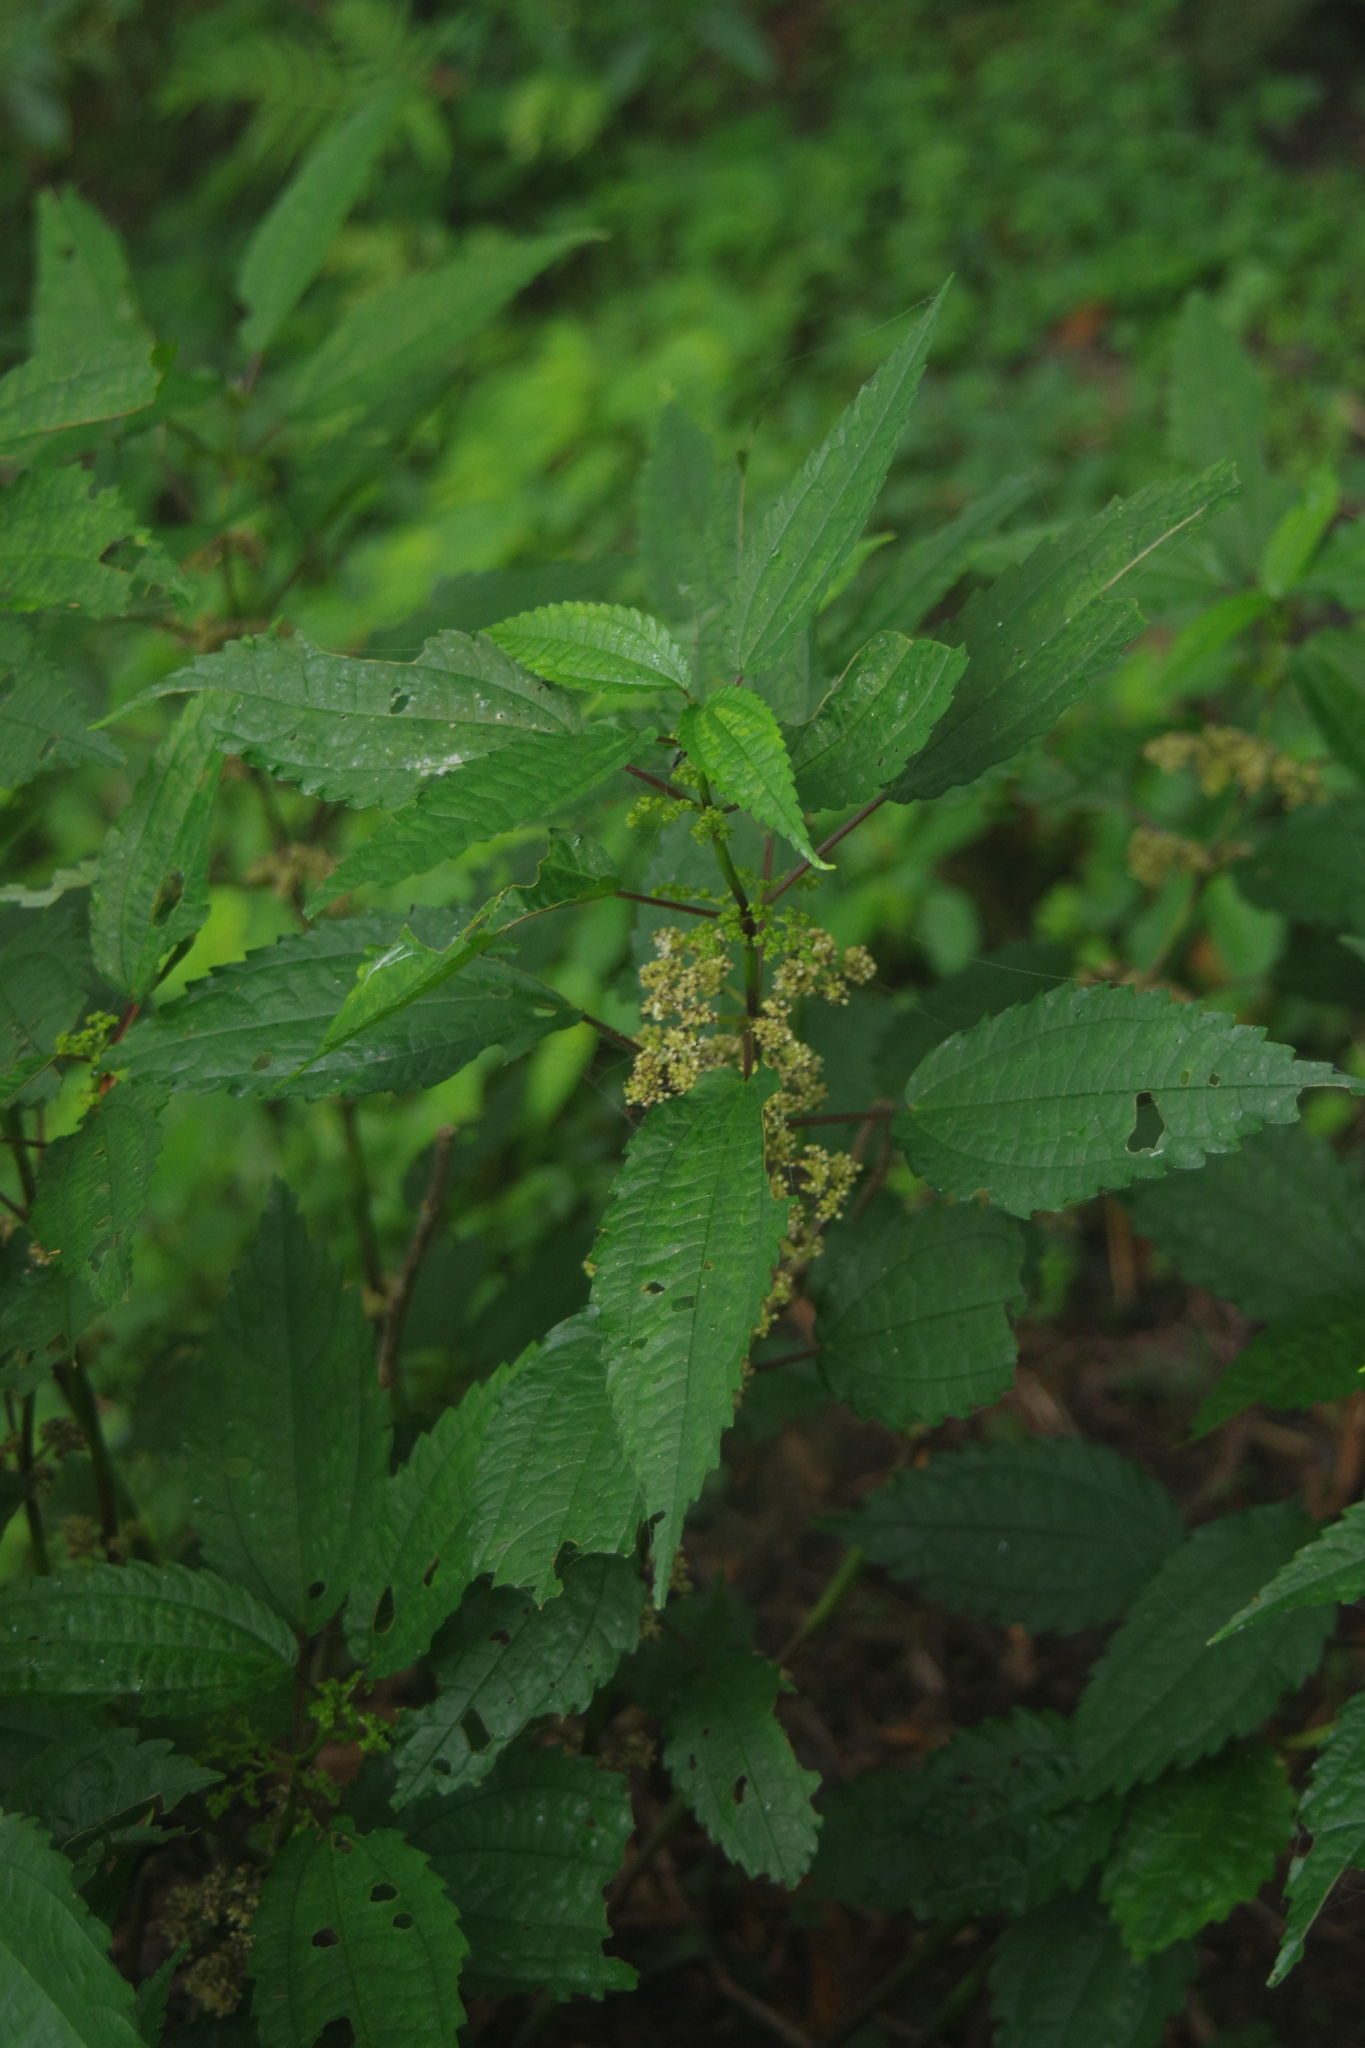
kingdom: Plantae
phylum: Tracheophyta
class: Magnoliopsida
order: Rosales
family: Urticaceae
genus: Pilea
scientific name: Pilea angulata
